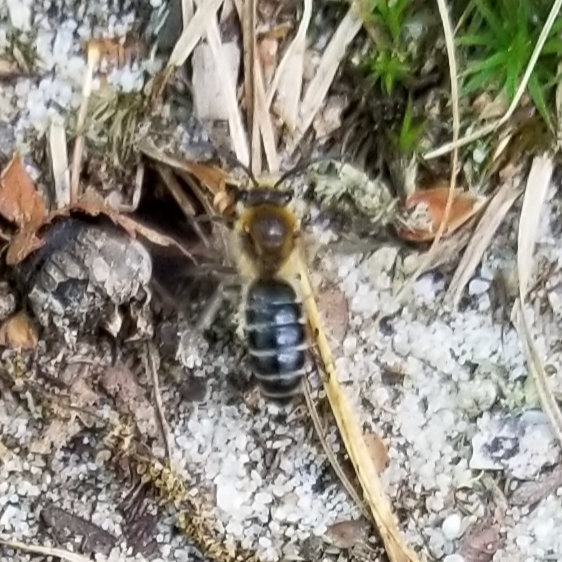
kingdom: Animalia
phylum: Arthropoda
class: Insecta
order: Hymenoptera
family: Colletidae
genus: Colletes
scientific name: Colletes thoracicus
